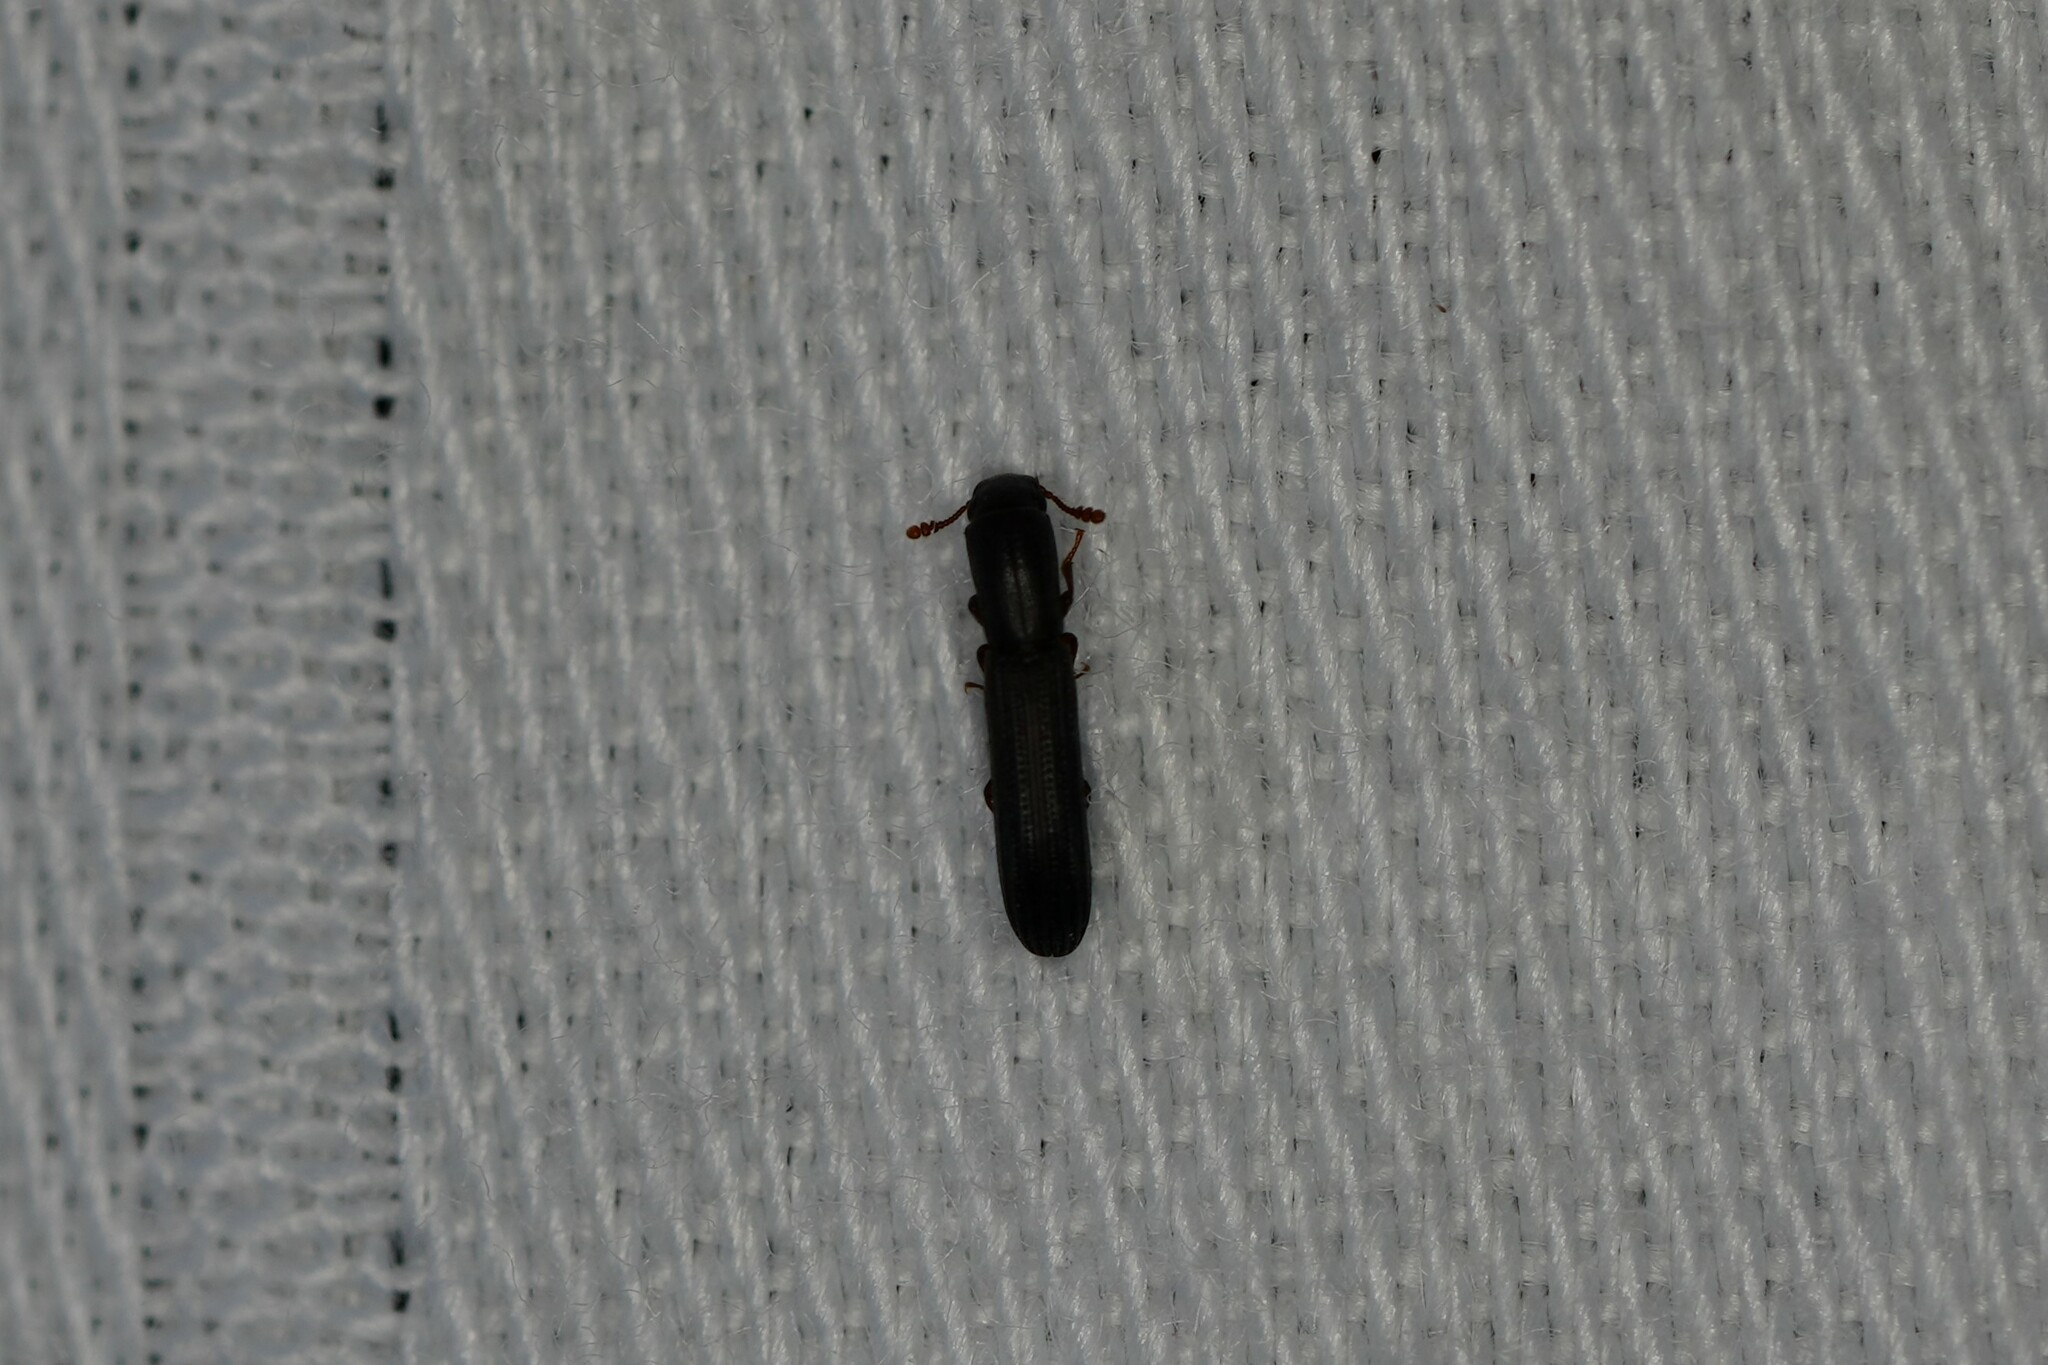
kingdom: Animalia
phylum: Arthropoda
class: Insecta
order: Coleoptera
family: Zopheridae
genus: Colydium
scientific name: Colydium lineola
